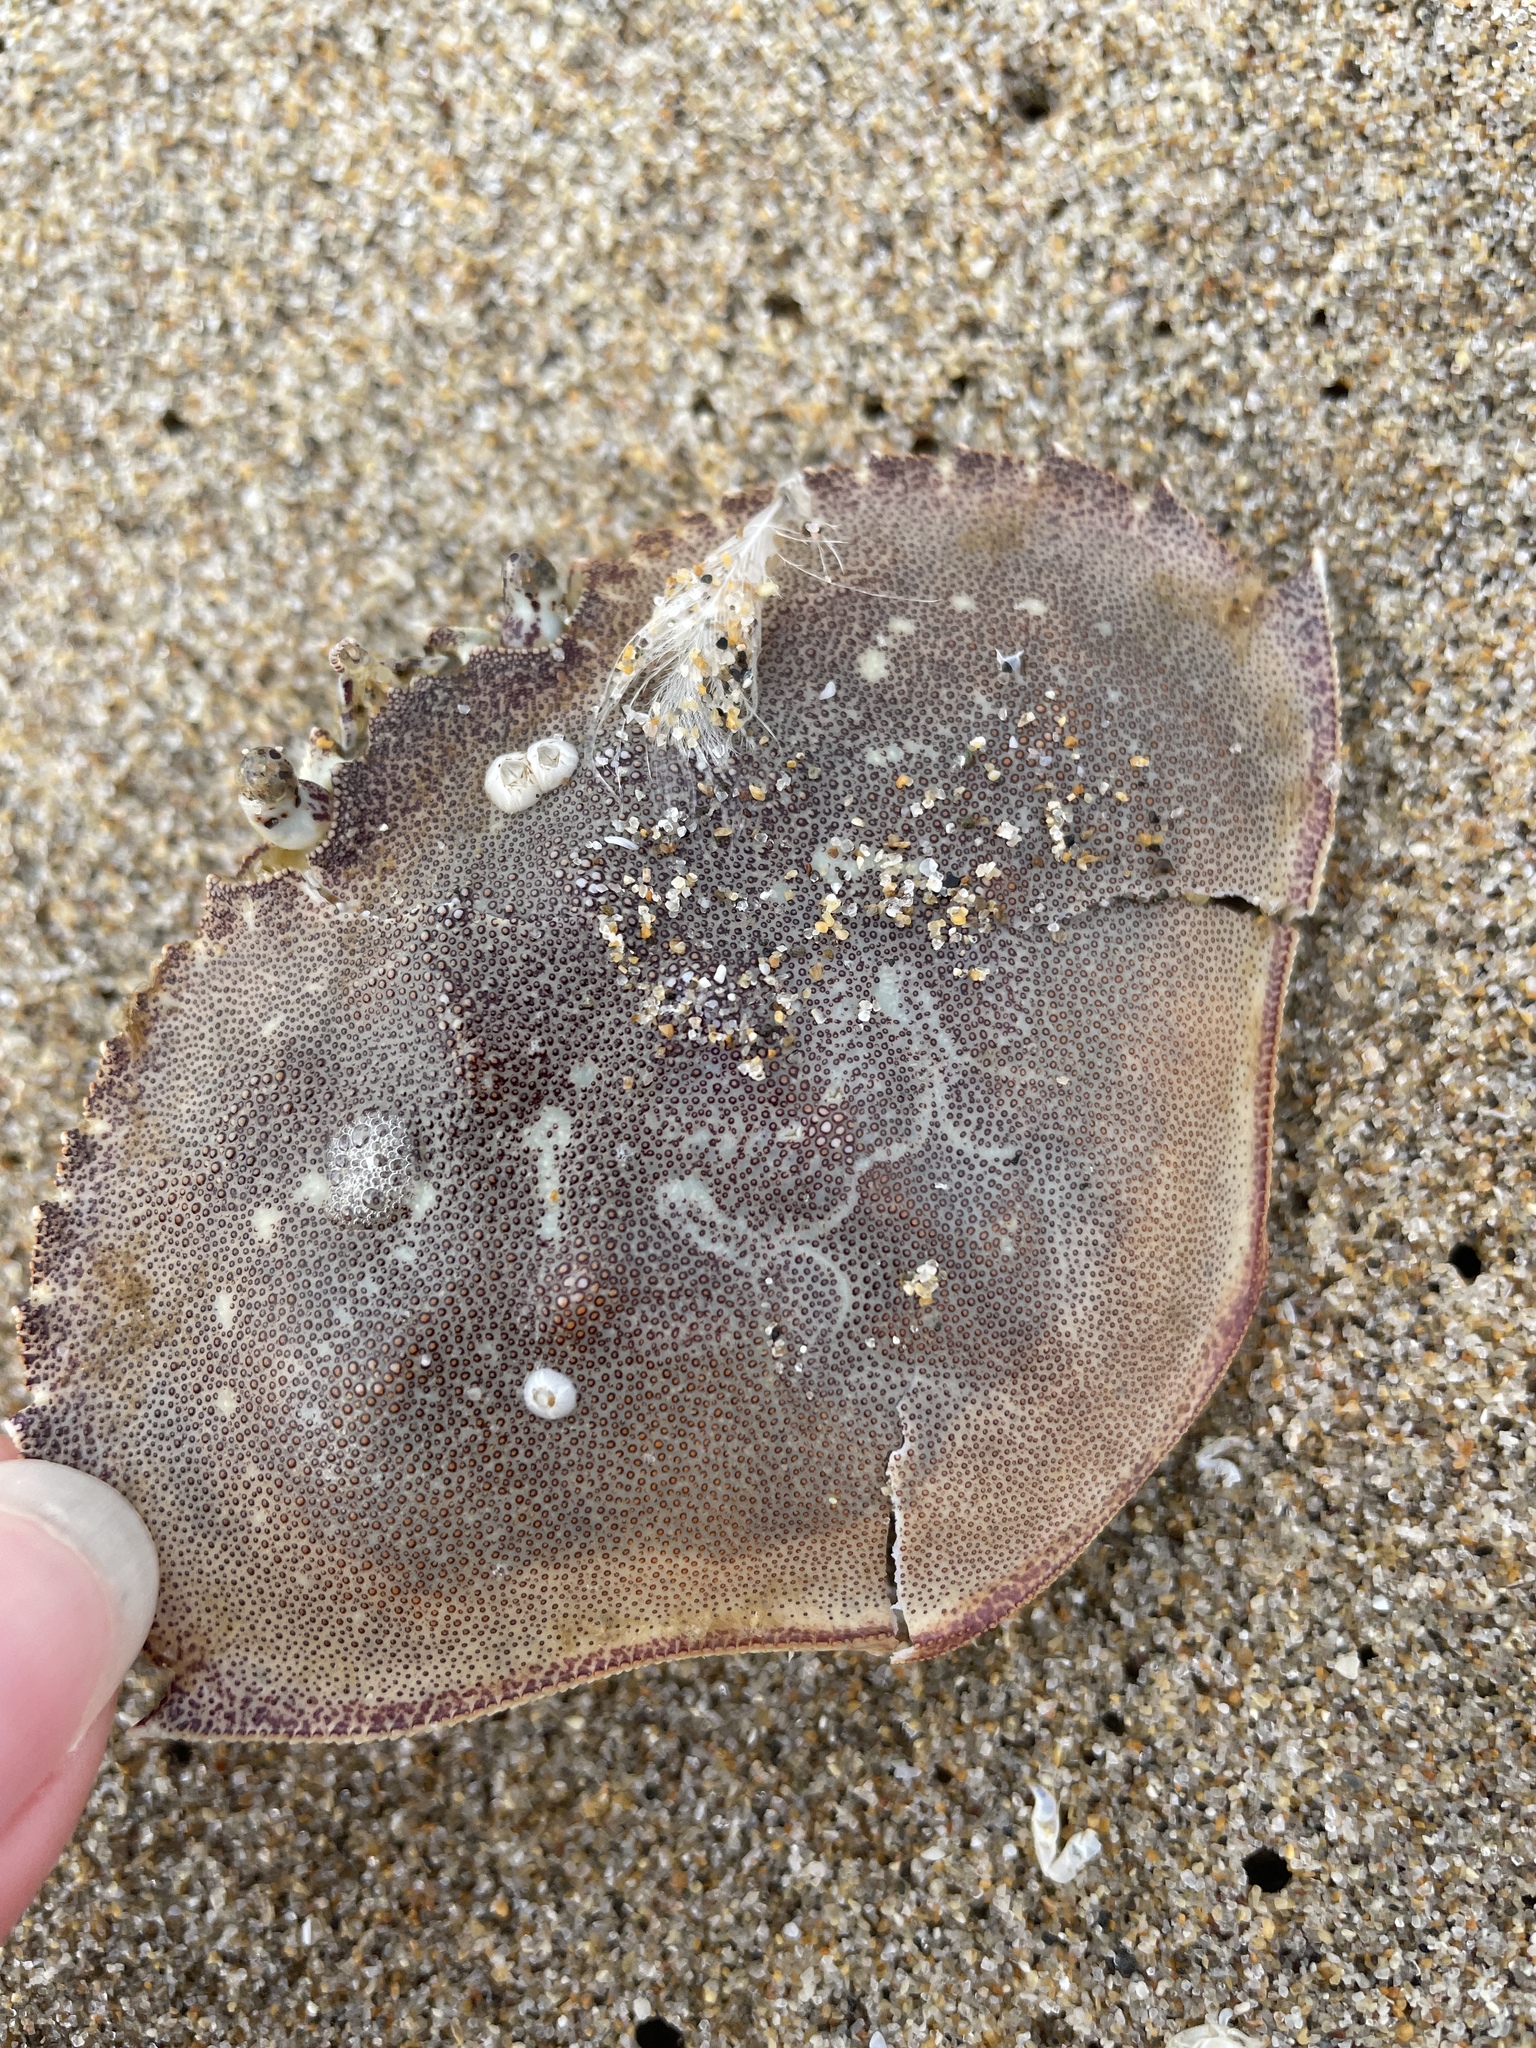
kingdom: Animalia
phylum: Arthropoda
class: Malacostraca
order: Decapoda
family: Cancridae
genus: Metacarcinus
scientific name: Metacarcinus magister
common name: Californian crab
